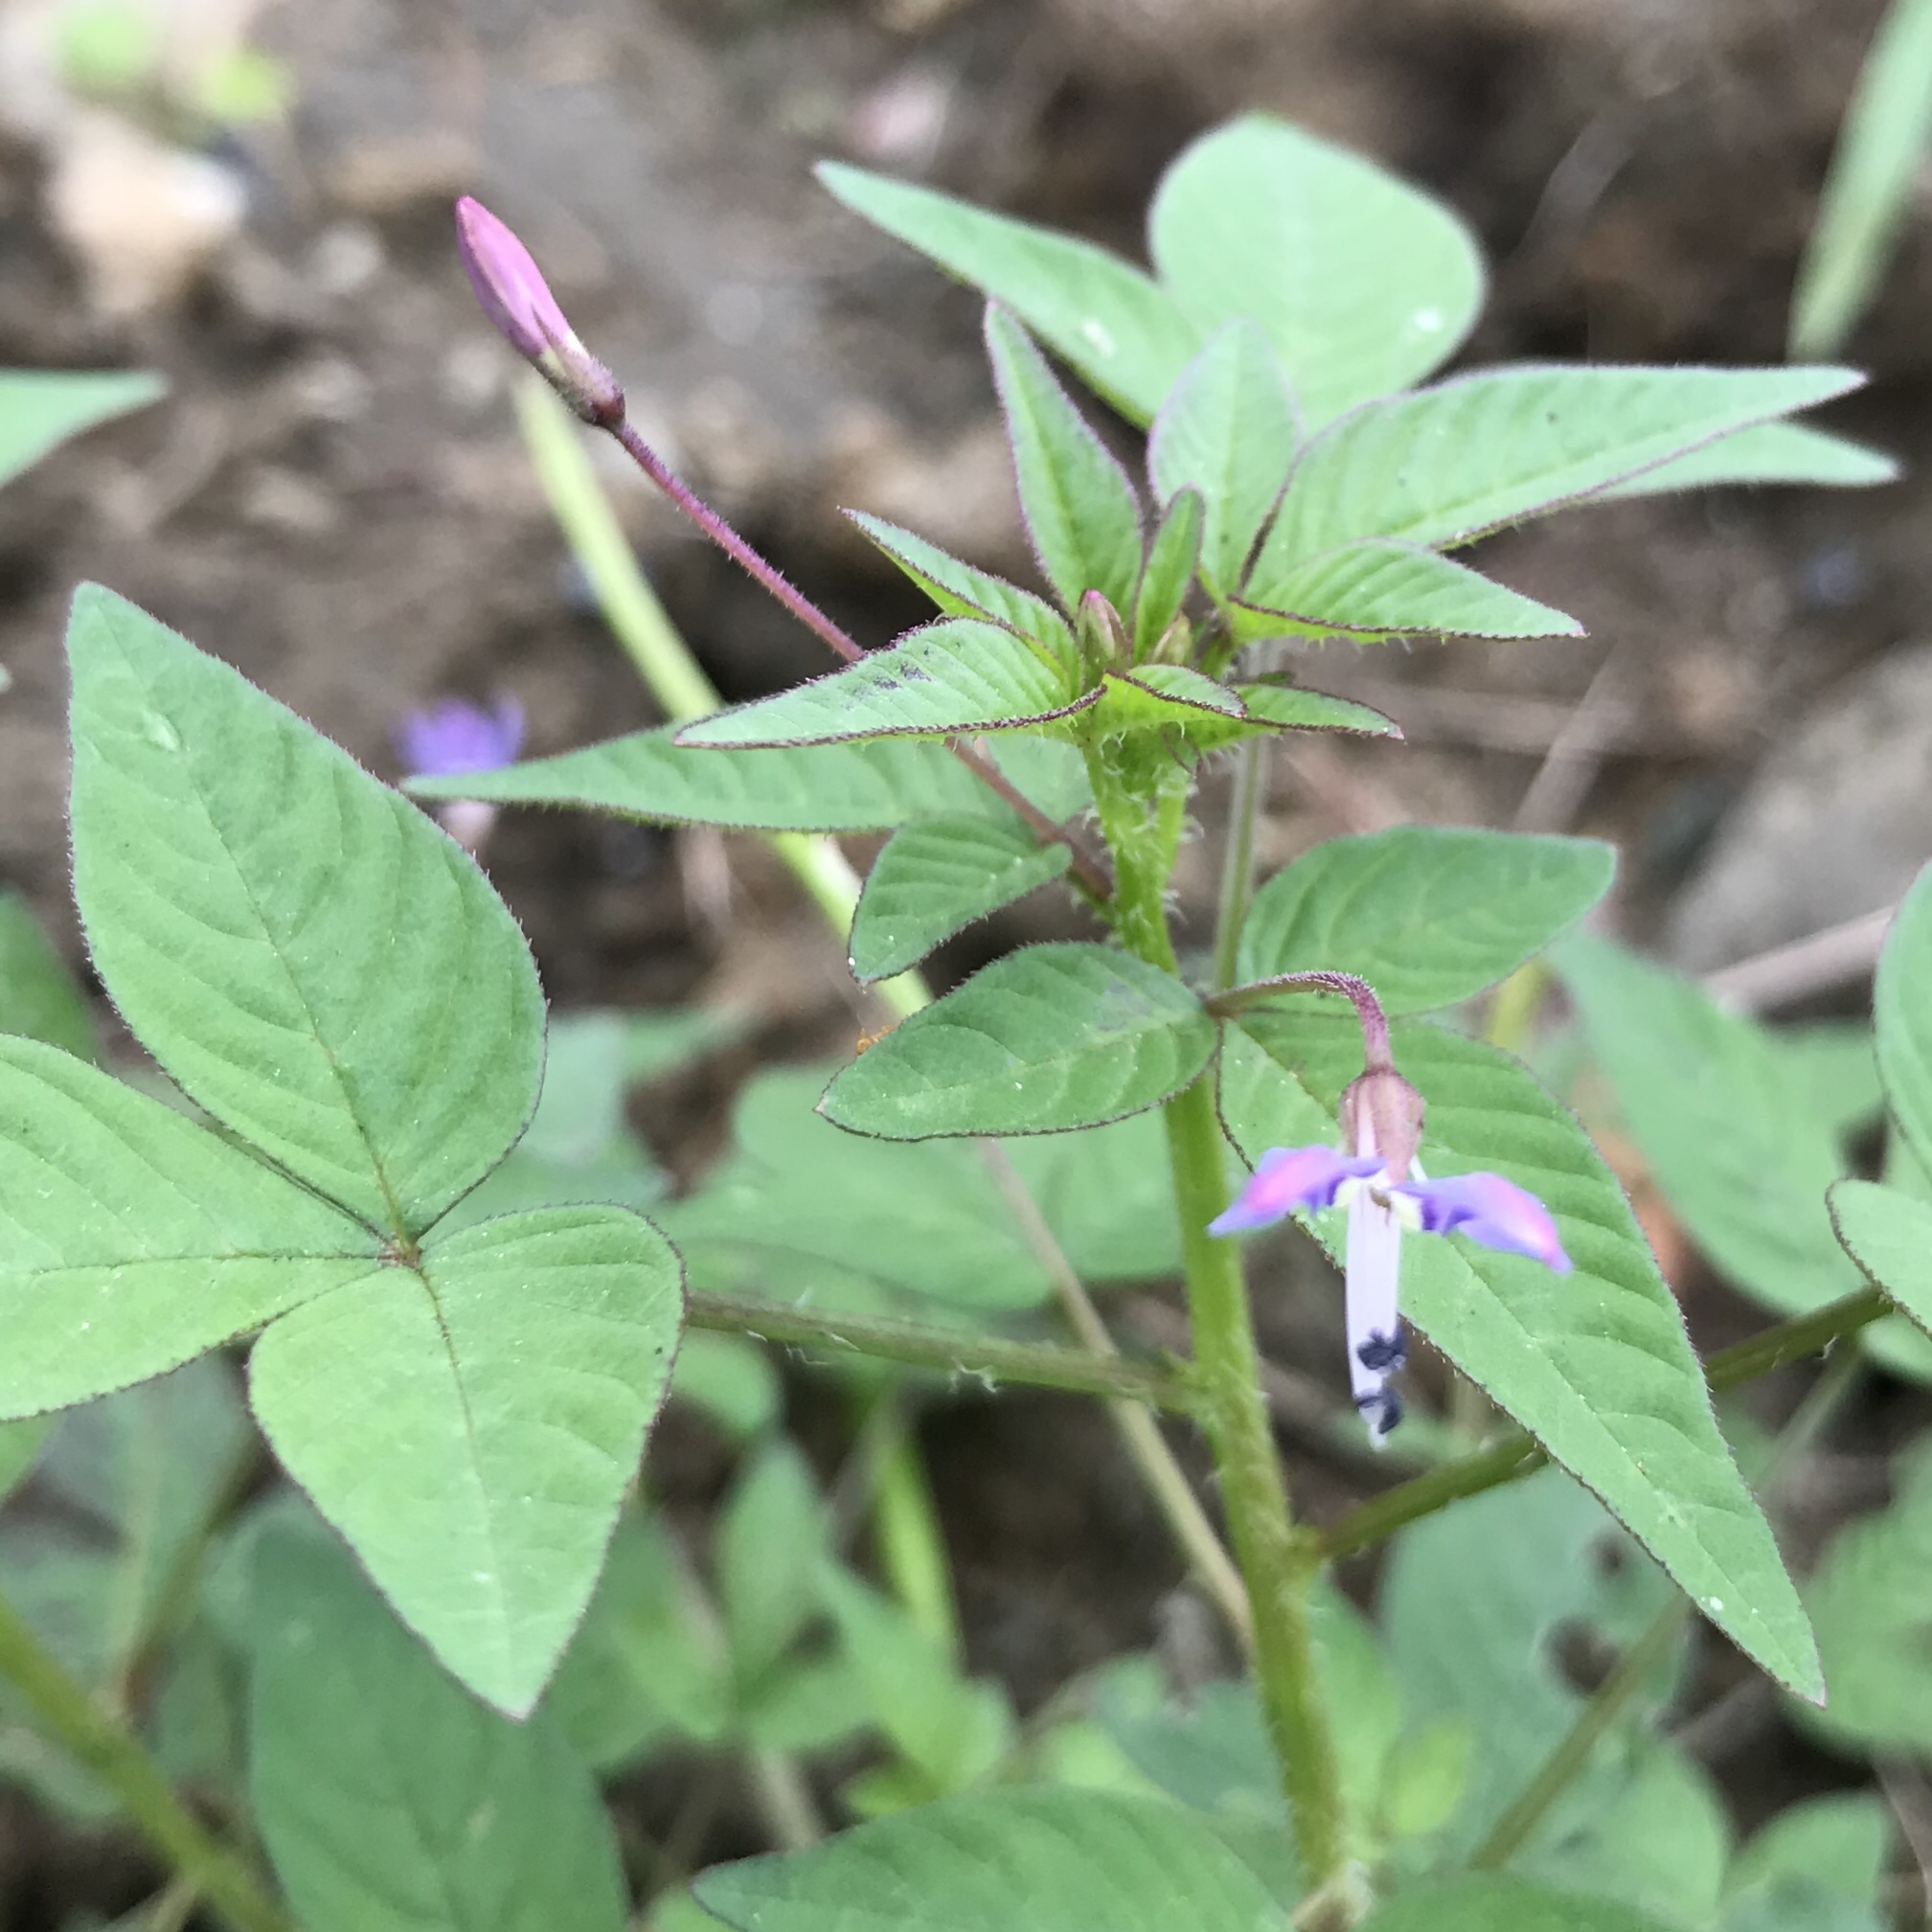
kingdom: Plantae
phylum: Tracheophyta
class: Magnoliopsida
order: Brassicales
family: Cleomaceae
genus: Sieruela
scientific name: Sieruela rutidosperma
